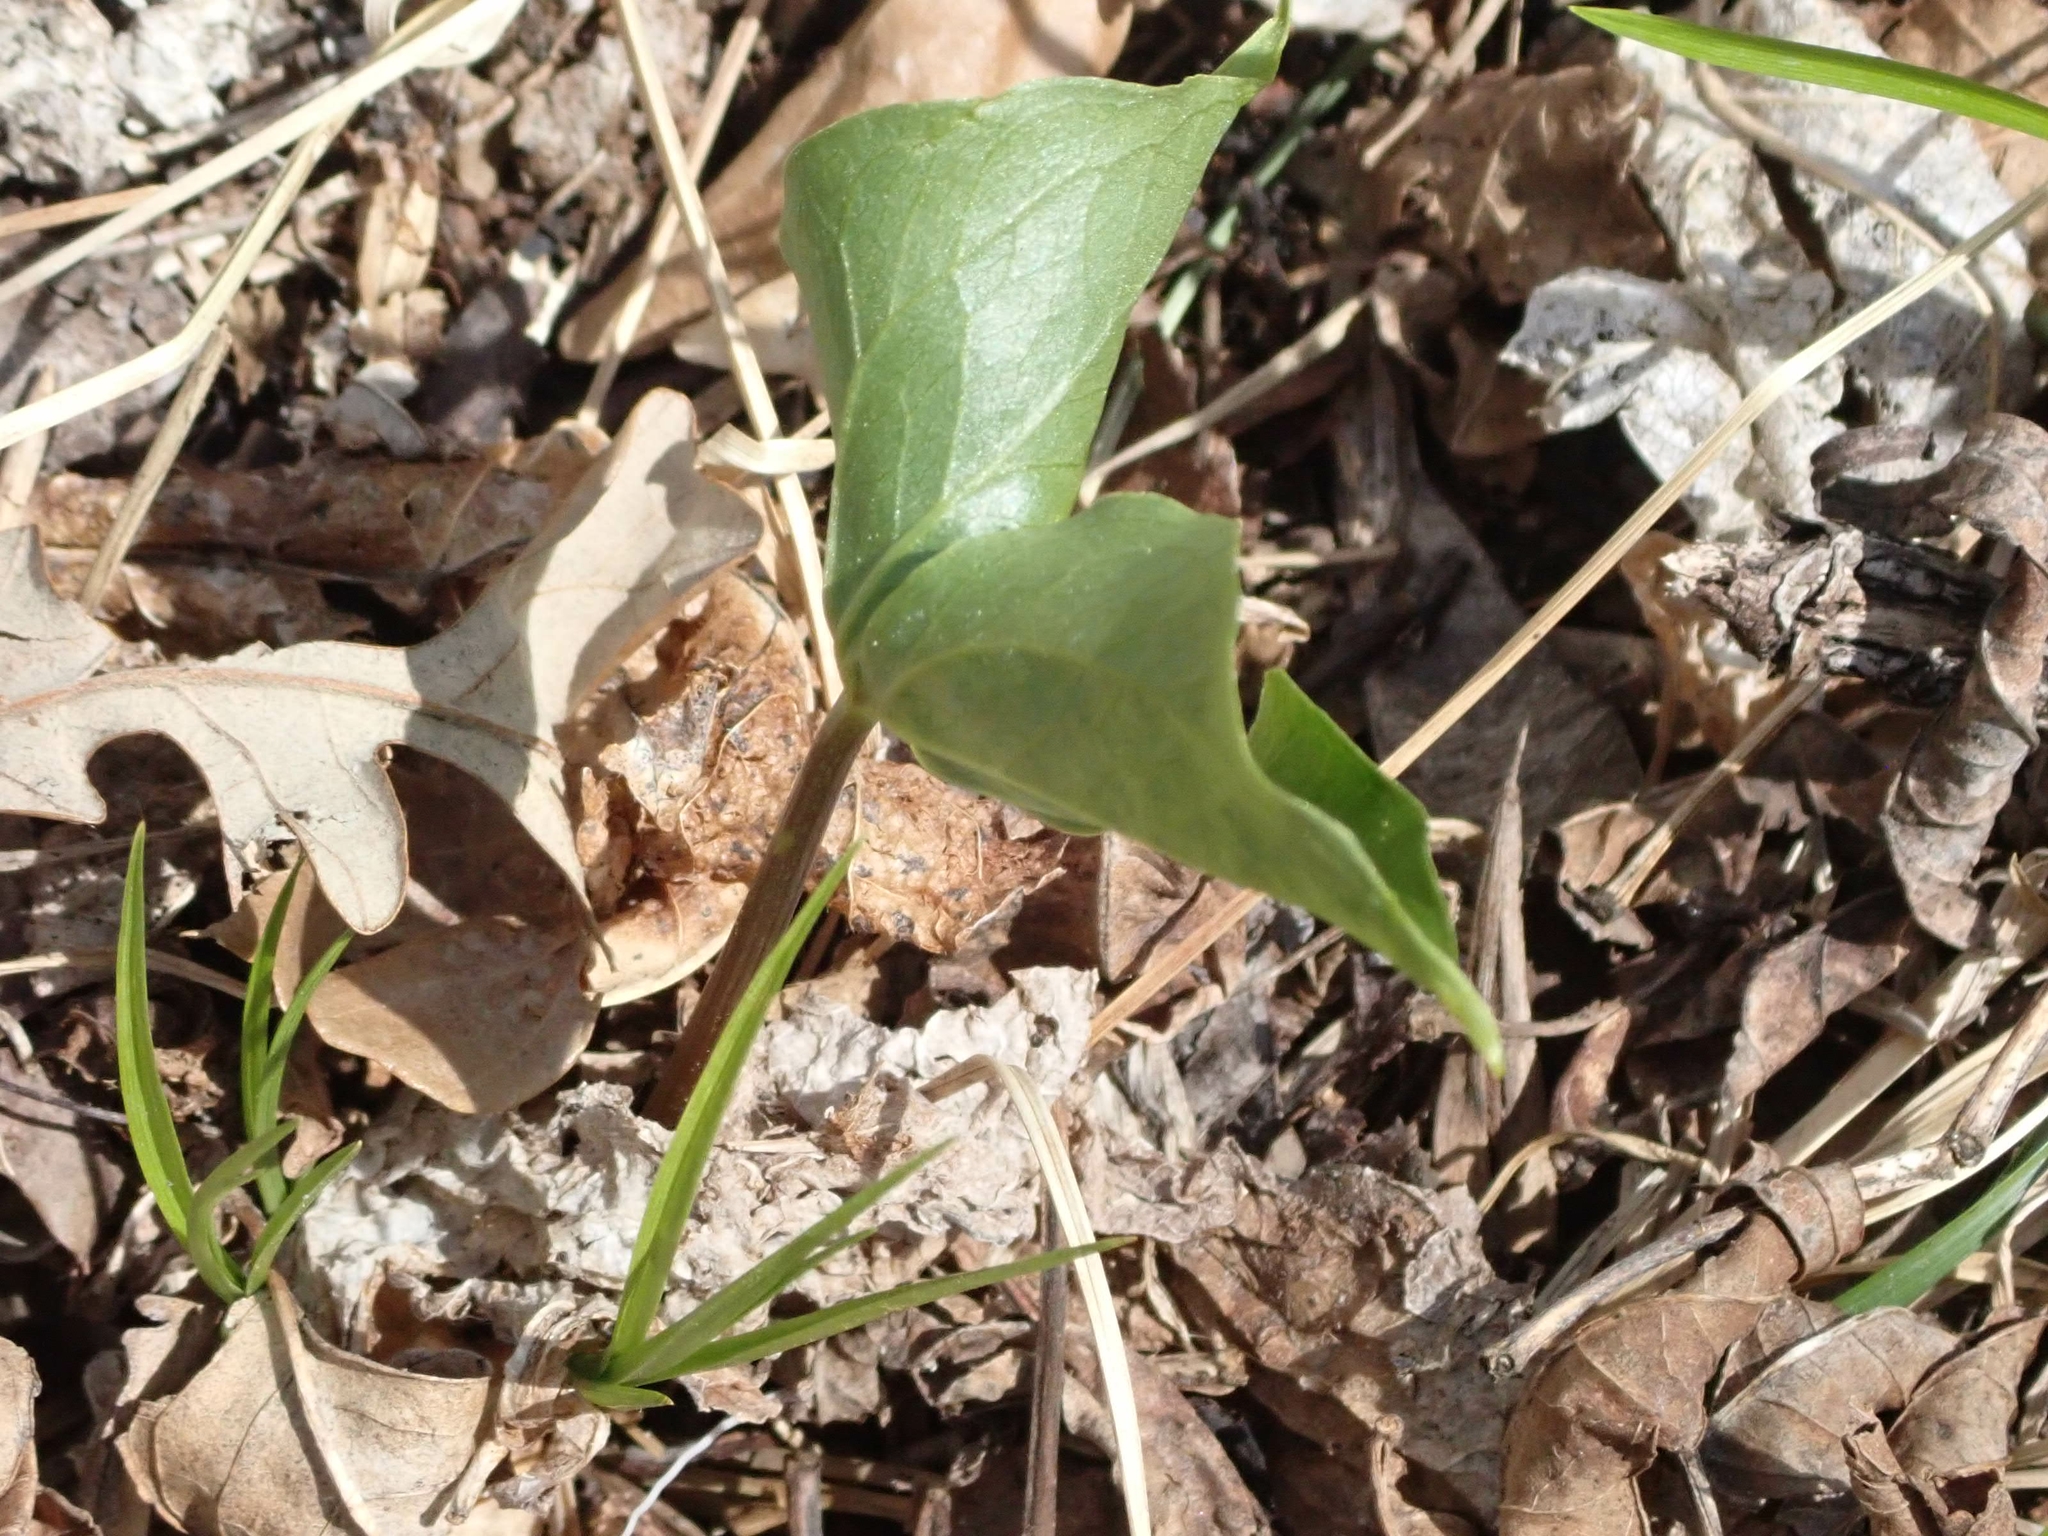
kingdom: Plantae
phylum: Tracheophyta
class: Liliopsida
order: Liliales
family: Melanthiaceae
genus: Trillium
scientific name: Trillium cernuum
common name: Nodding trillium
